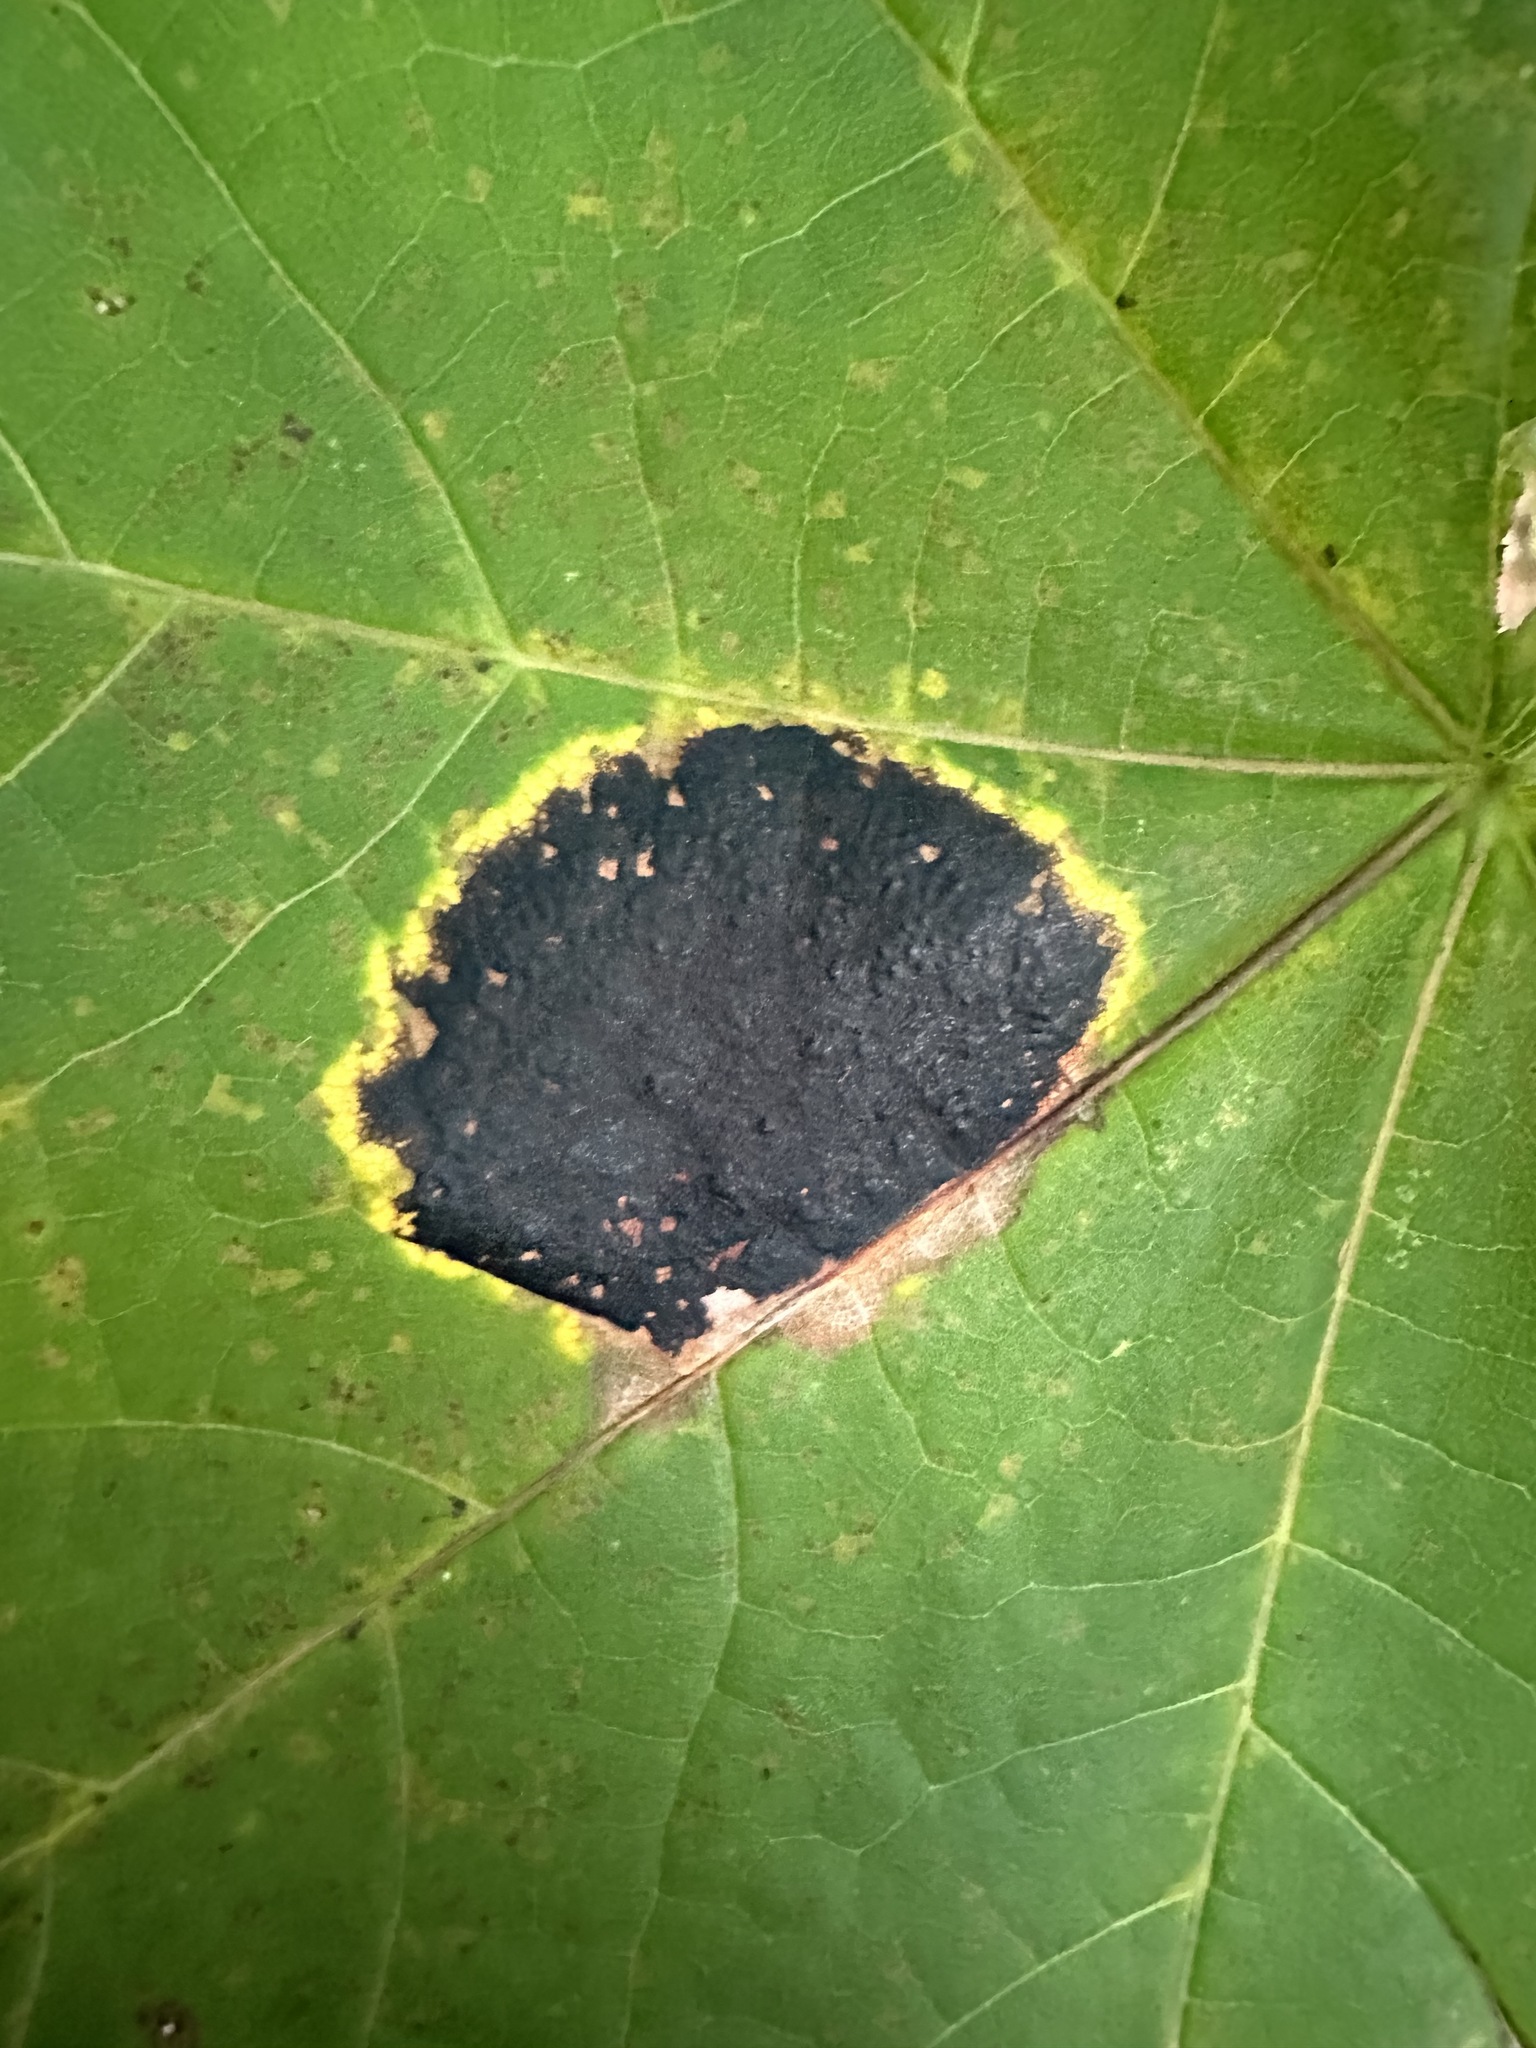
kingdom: Fungi
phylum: Ascomycota
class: Leotiomycetes
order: Rhytismatales
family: Rhytismataceae
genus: Rhytisma
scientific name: Rhytisma acerinum
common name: European tar spot
